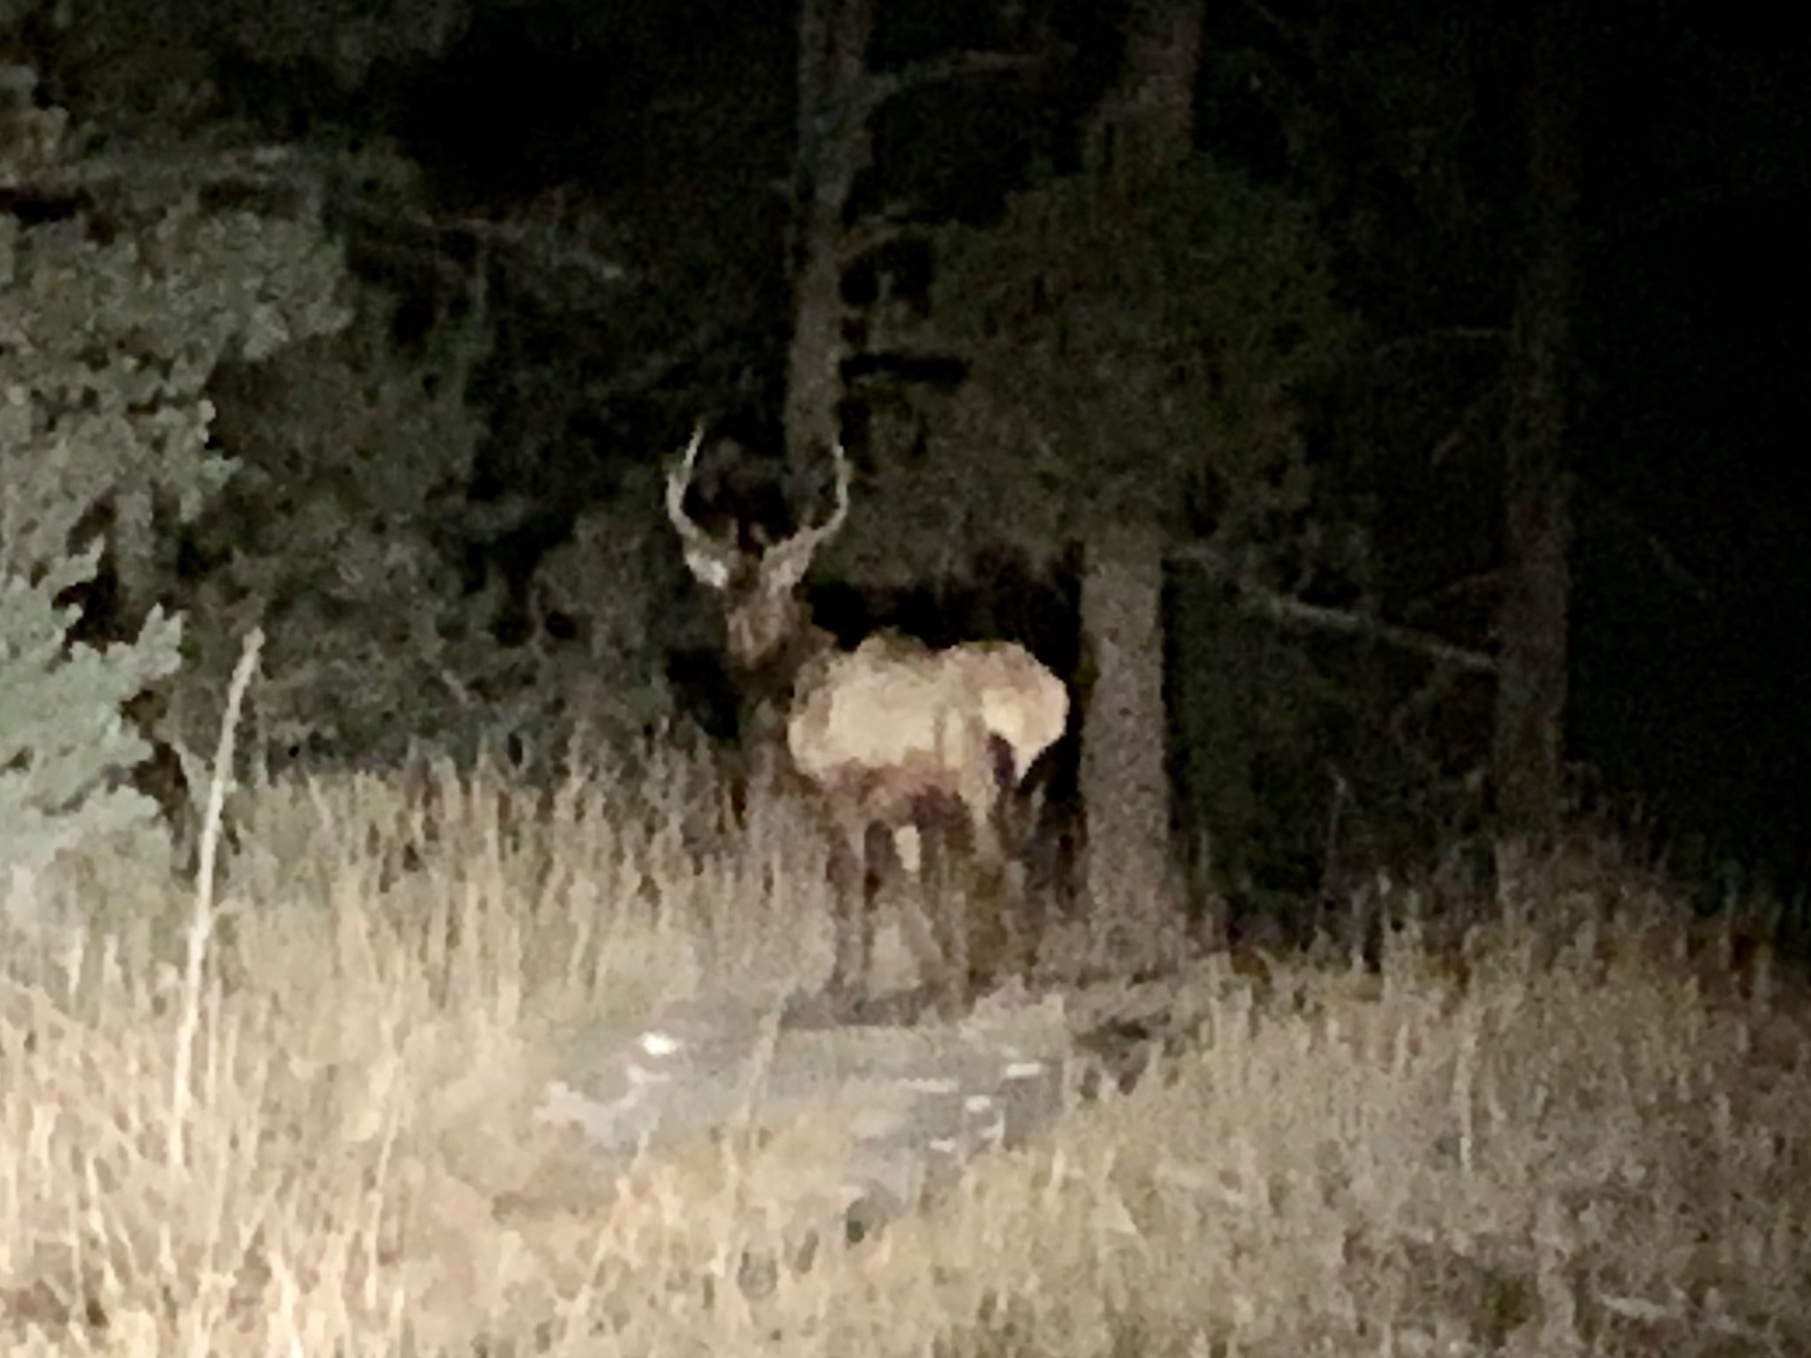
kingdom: Animalia
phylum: Chordata
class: Mammalia
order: Artiodactyla
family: Cervidae
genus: Cervus
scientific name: Cervus elaphus
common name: Red deer
